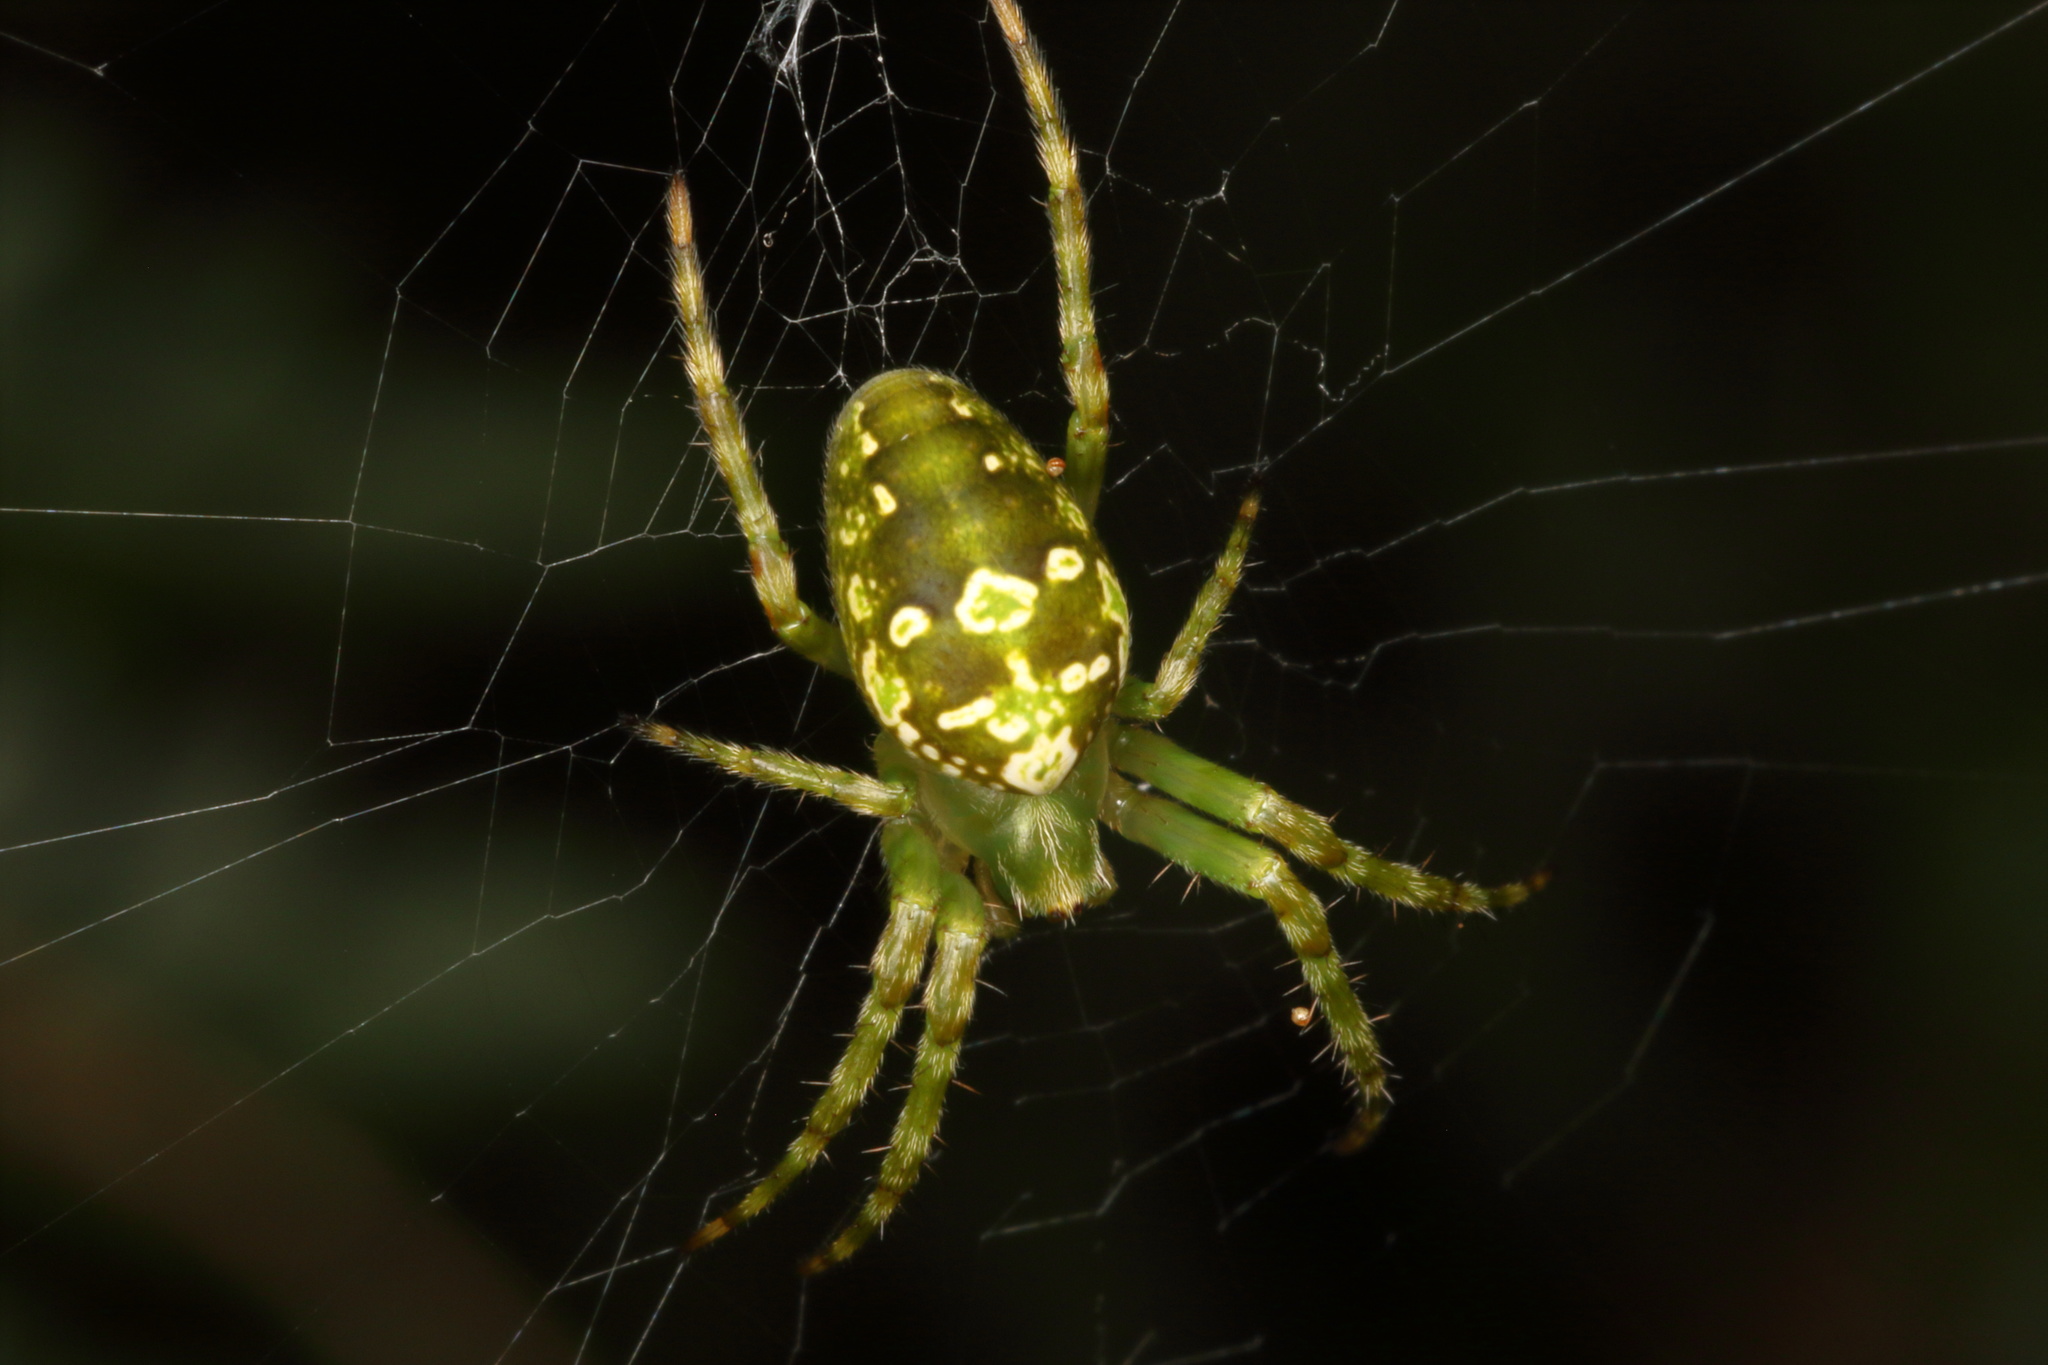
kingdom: Animalia
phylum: Arthropoda
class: Arachnida
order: Araneae
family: Araneidae
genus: Colaranea
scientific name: Colaranea verutum
